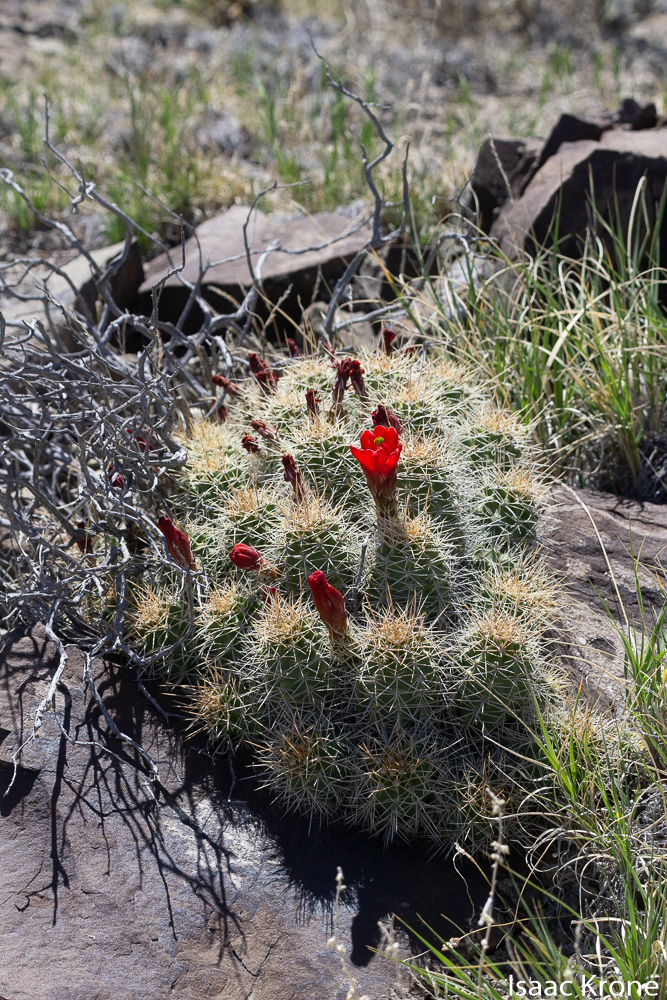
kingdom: Plantae
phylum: Tracheophyta
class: Magnoliopsida
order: Caryophyllales
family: Cactaceae
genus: Echinocereus
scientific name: Echinocereus triglochidiatus
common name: Claretcup hedgehog
